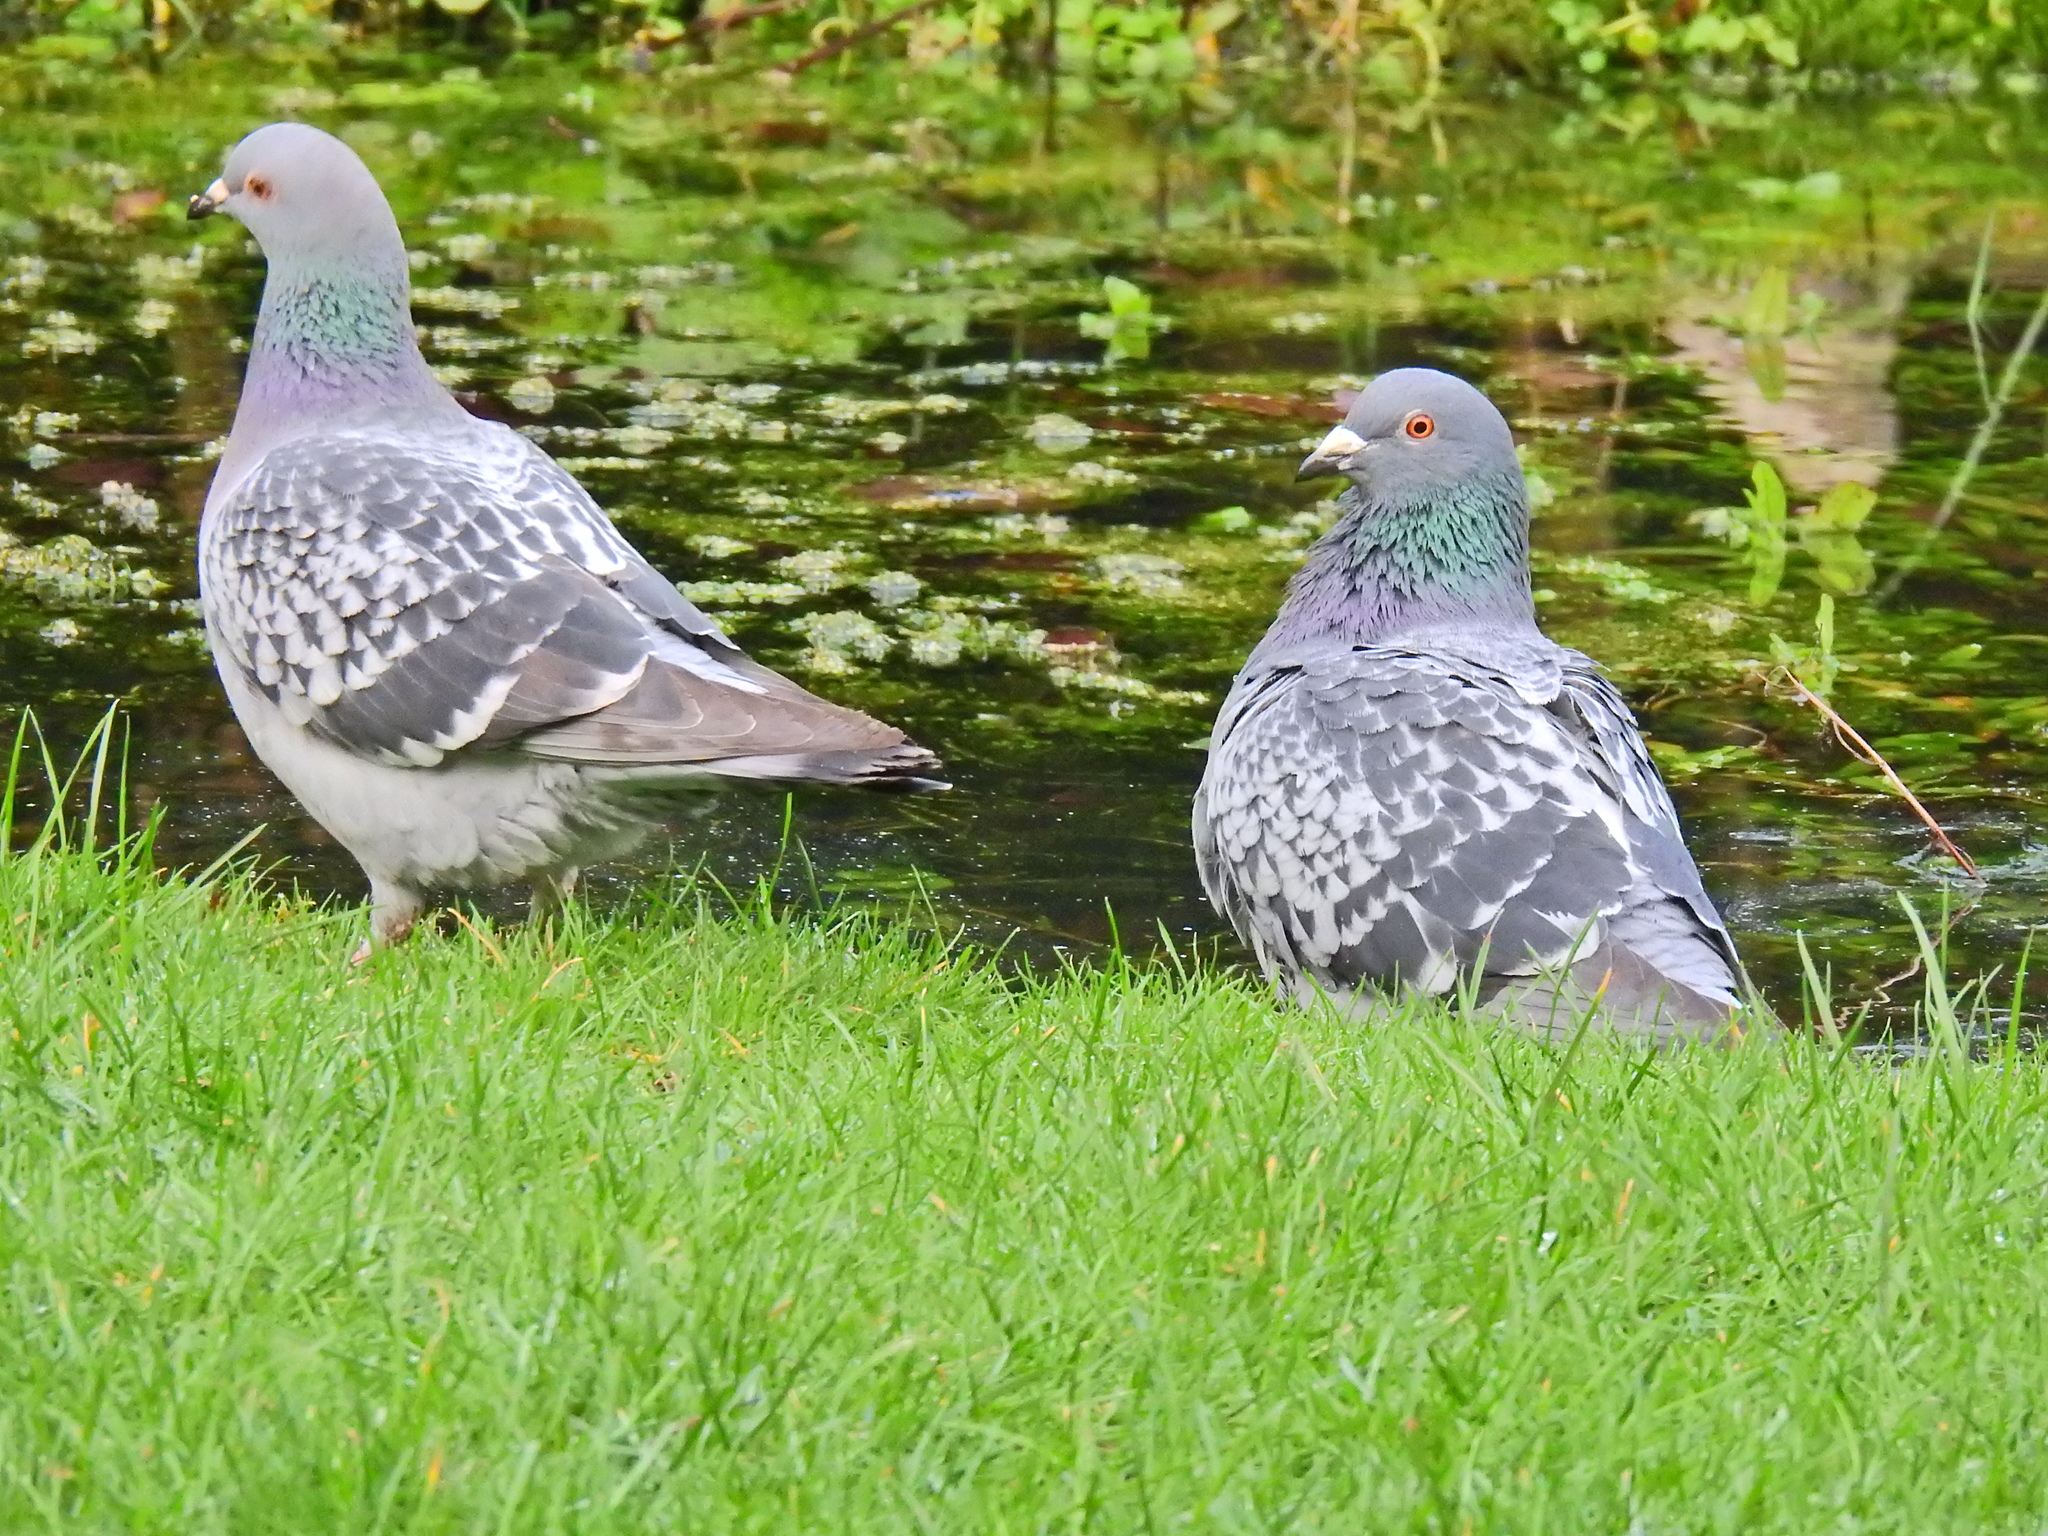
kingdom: Animalia
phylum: Chordata
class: Aves
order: Columbiformes
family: Columbidae
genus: Columba
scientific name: Columba livia
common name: Rock pigeon
